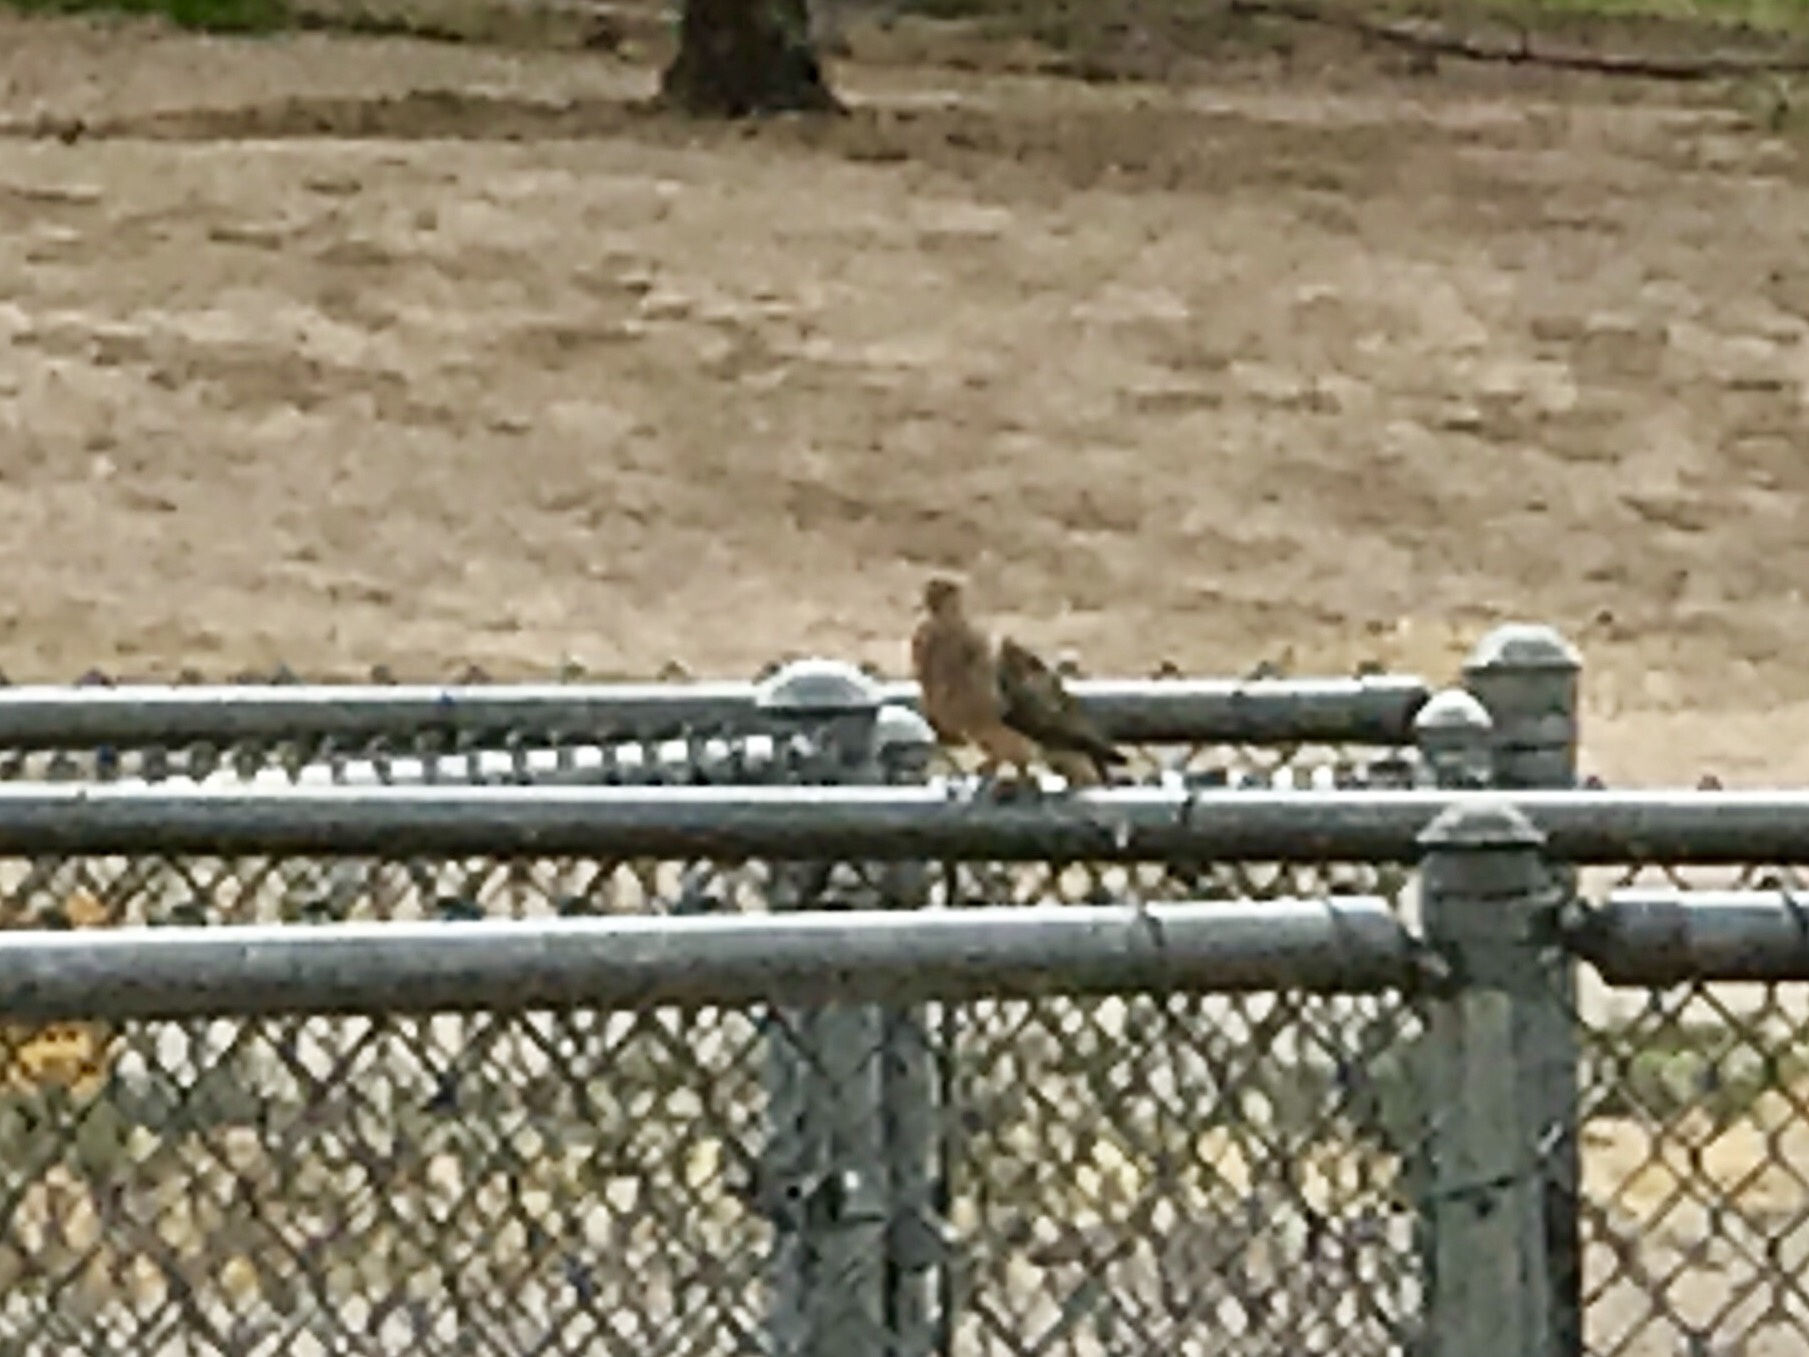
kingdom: Animalia
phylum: Chordata
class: Aves
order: Columbiformes
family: Columbidae
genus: Zenaida
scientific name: Zenaida macroura
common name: Mourning dove
